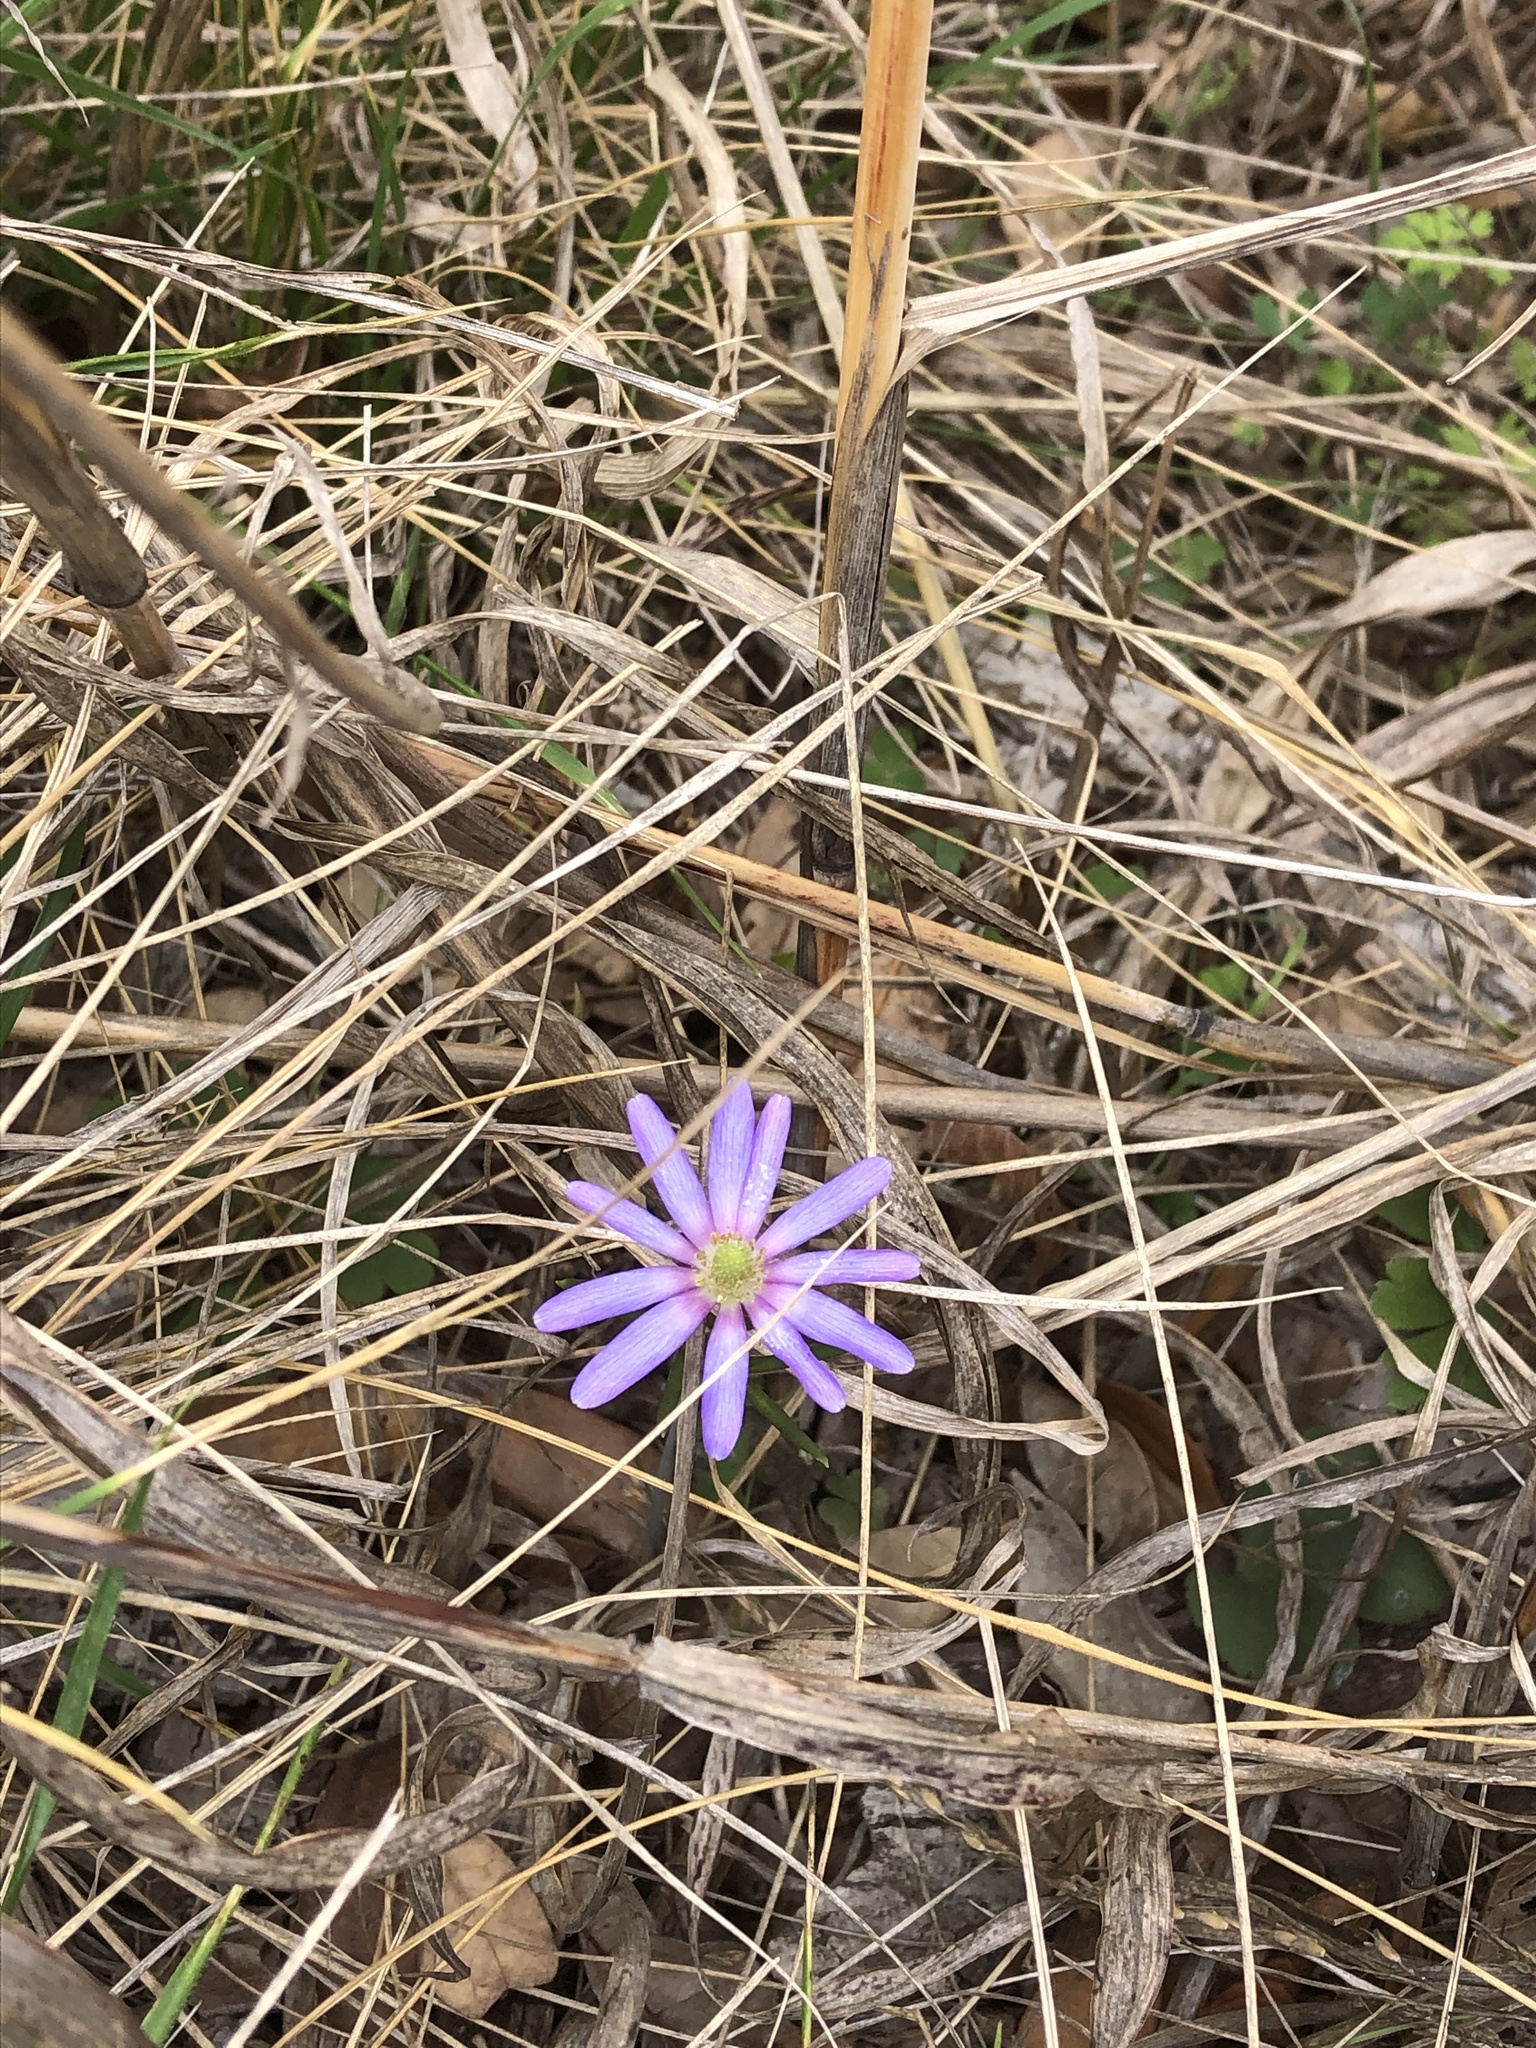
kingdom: Plantae
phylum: Tracheophyta
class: Magnoliopsida
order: Ranunculales
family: Ranunculaceae
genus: Anemone
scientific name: Anemone berlandieri
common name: Ten-petal anemone
